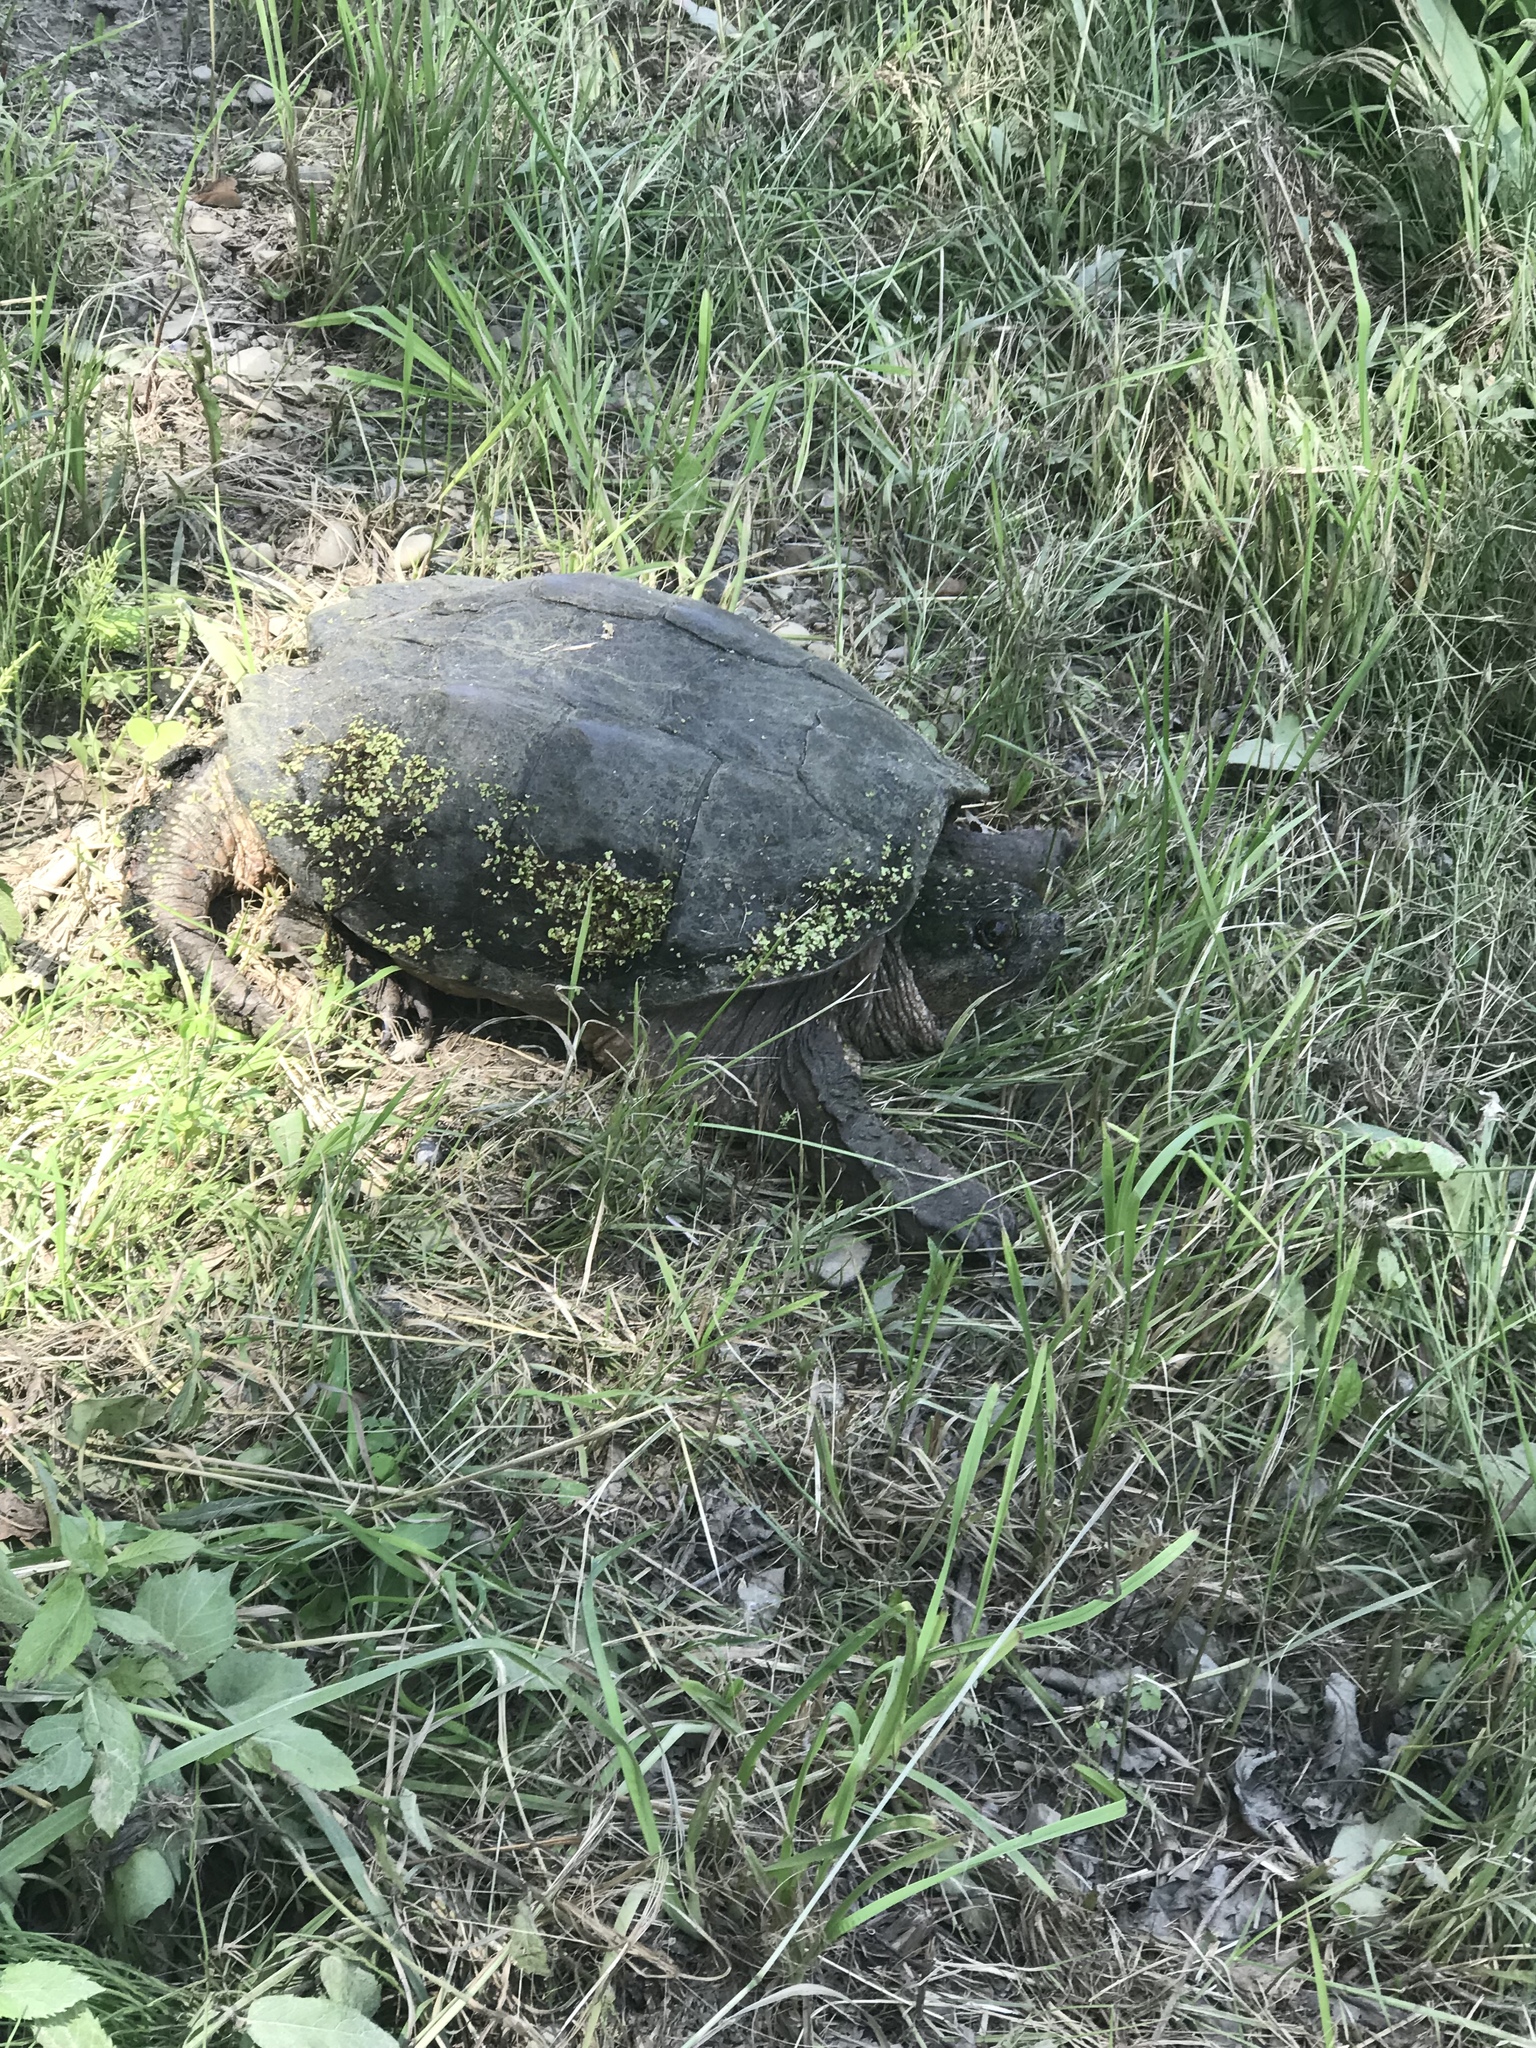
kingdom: Animalia
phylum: Chordata
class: Testudines
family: Chelydridae
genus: Chelydra
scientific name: Chelydra serpentina
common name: Common snapping turtle
